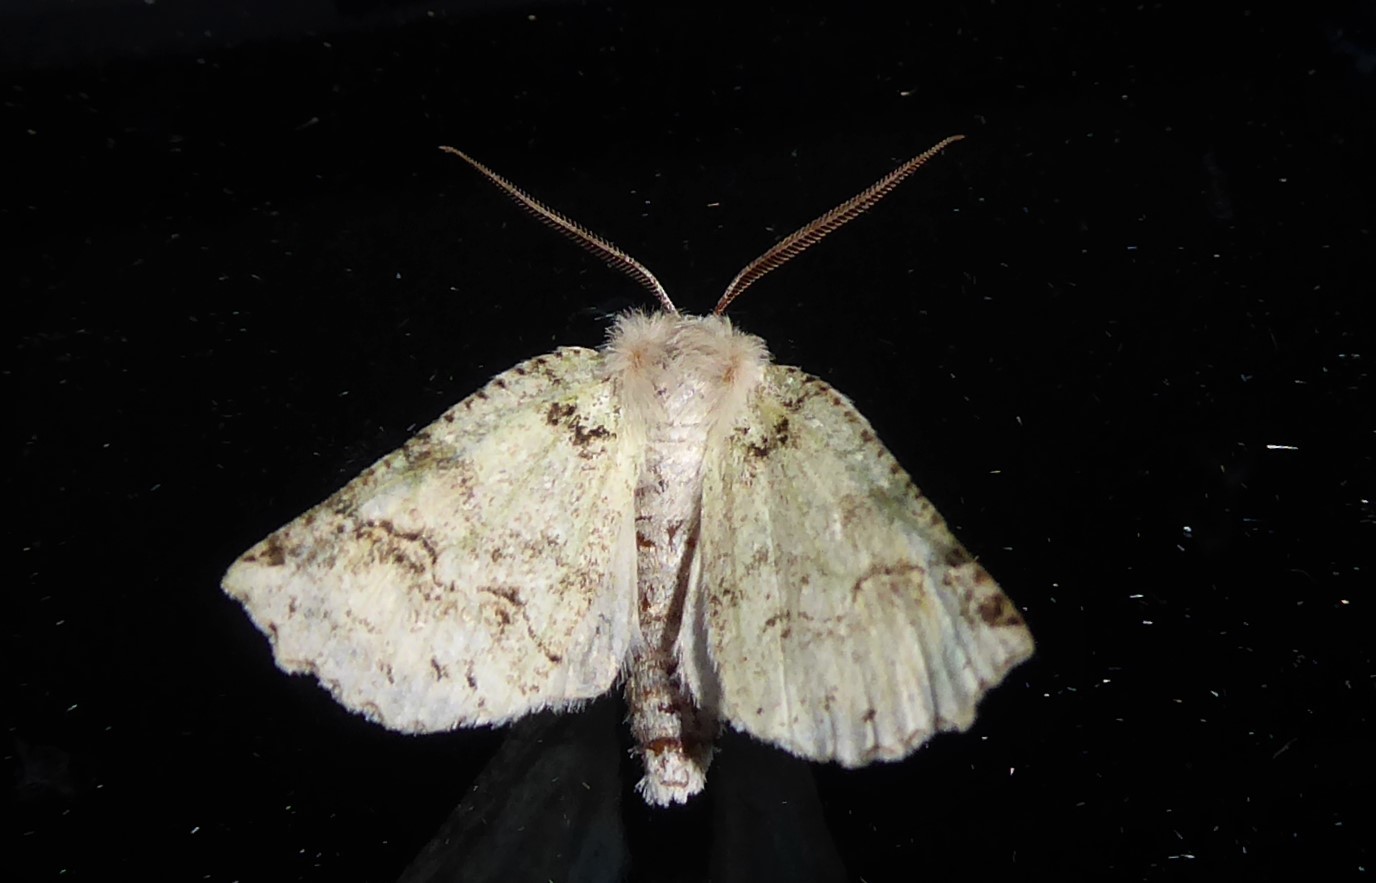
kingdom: Animalia
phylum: Arthropoda
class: Insecta
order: Lepidoptera
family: Geometridae
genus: Declana
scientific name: Declana floccosa
